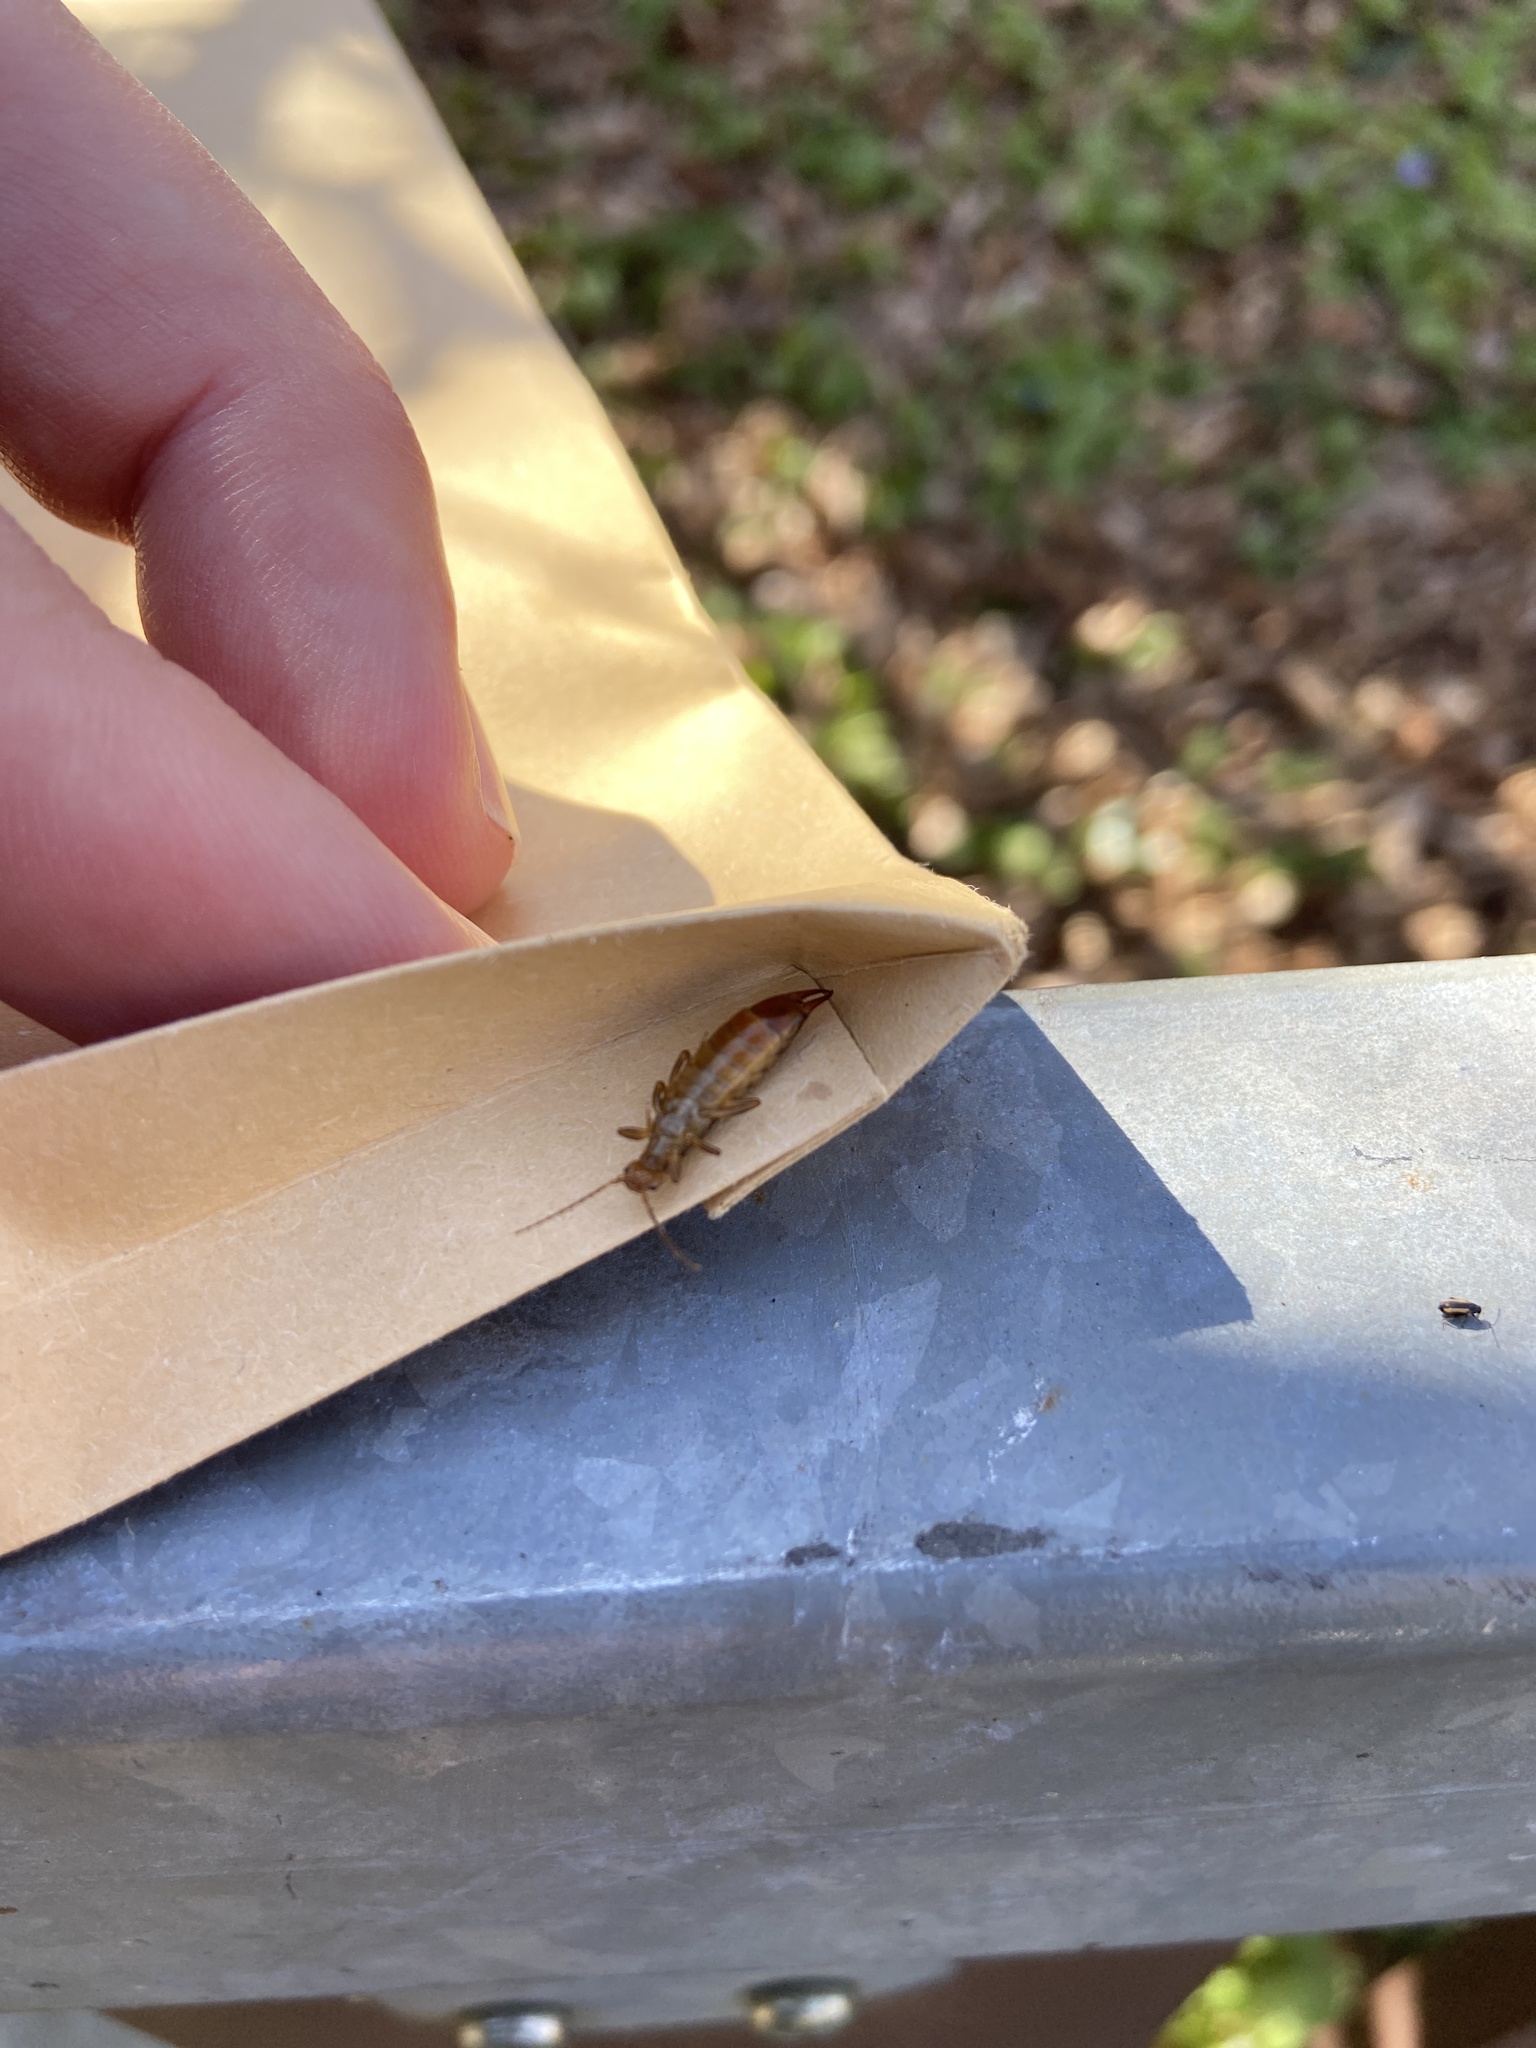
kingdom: Animalia
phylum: Arthropoda
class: Insecta
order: Dermaptera
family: Forficulidae
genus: Chelidurella
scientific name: Chelidurella acanthopygia
